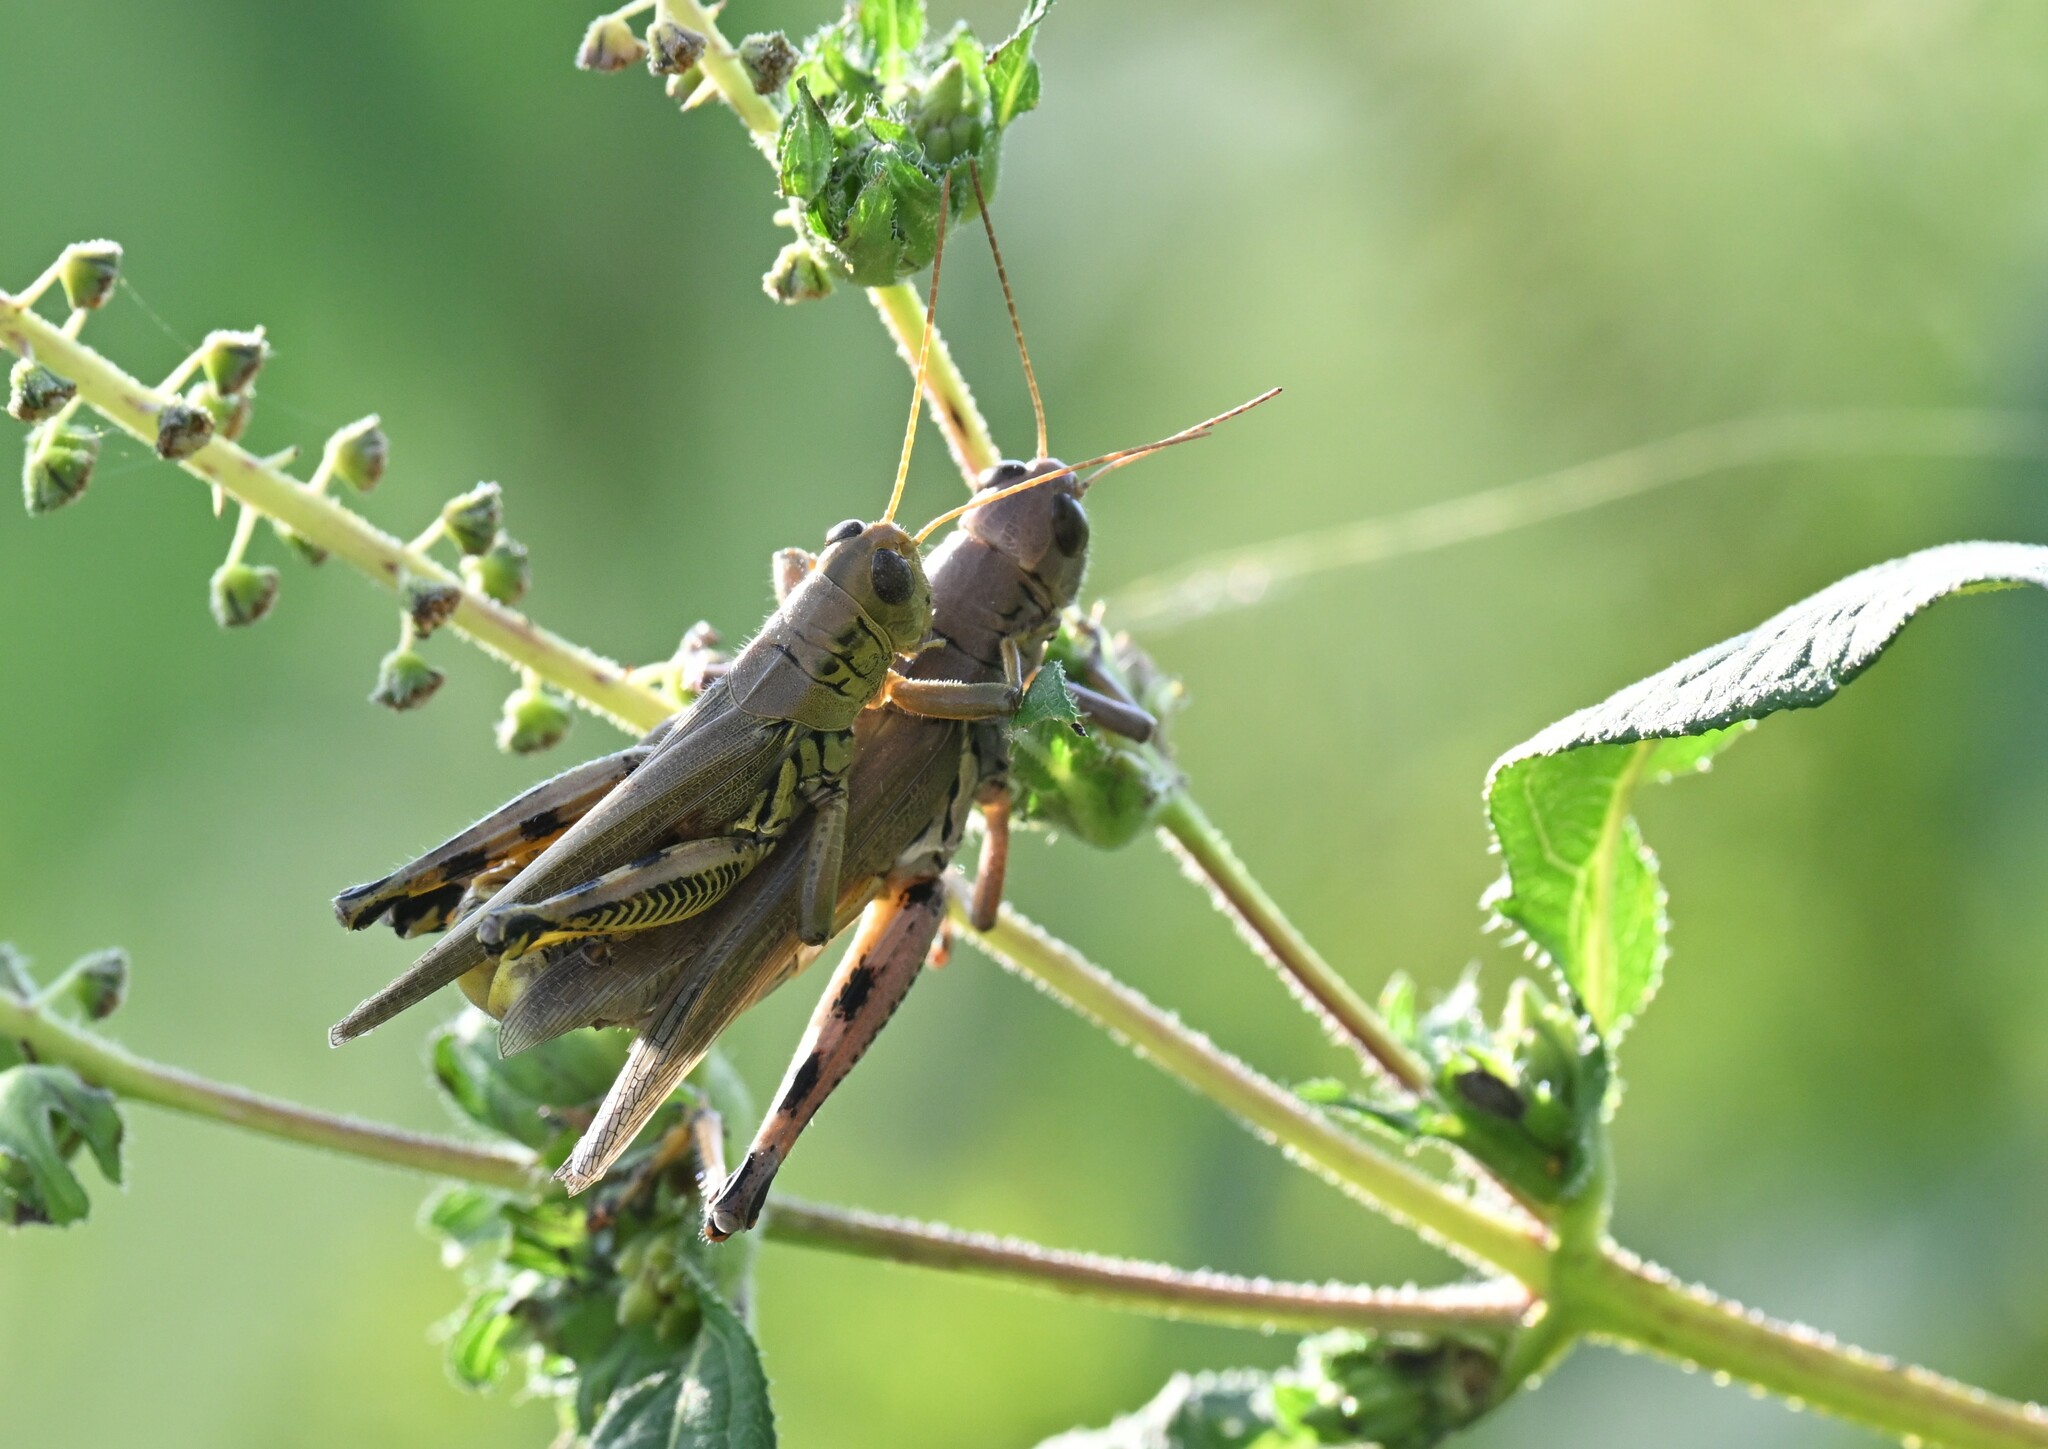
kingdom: Animalia
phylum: Arthropoda
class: Insecta
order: Orthoptera
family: Acrididae
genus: Melanoplus
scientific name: Melanoplus differentialis
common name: Differential grasshopper
